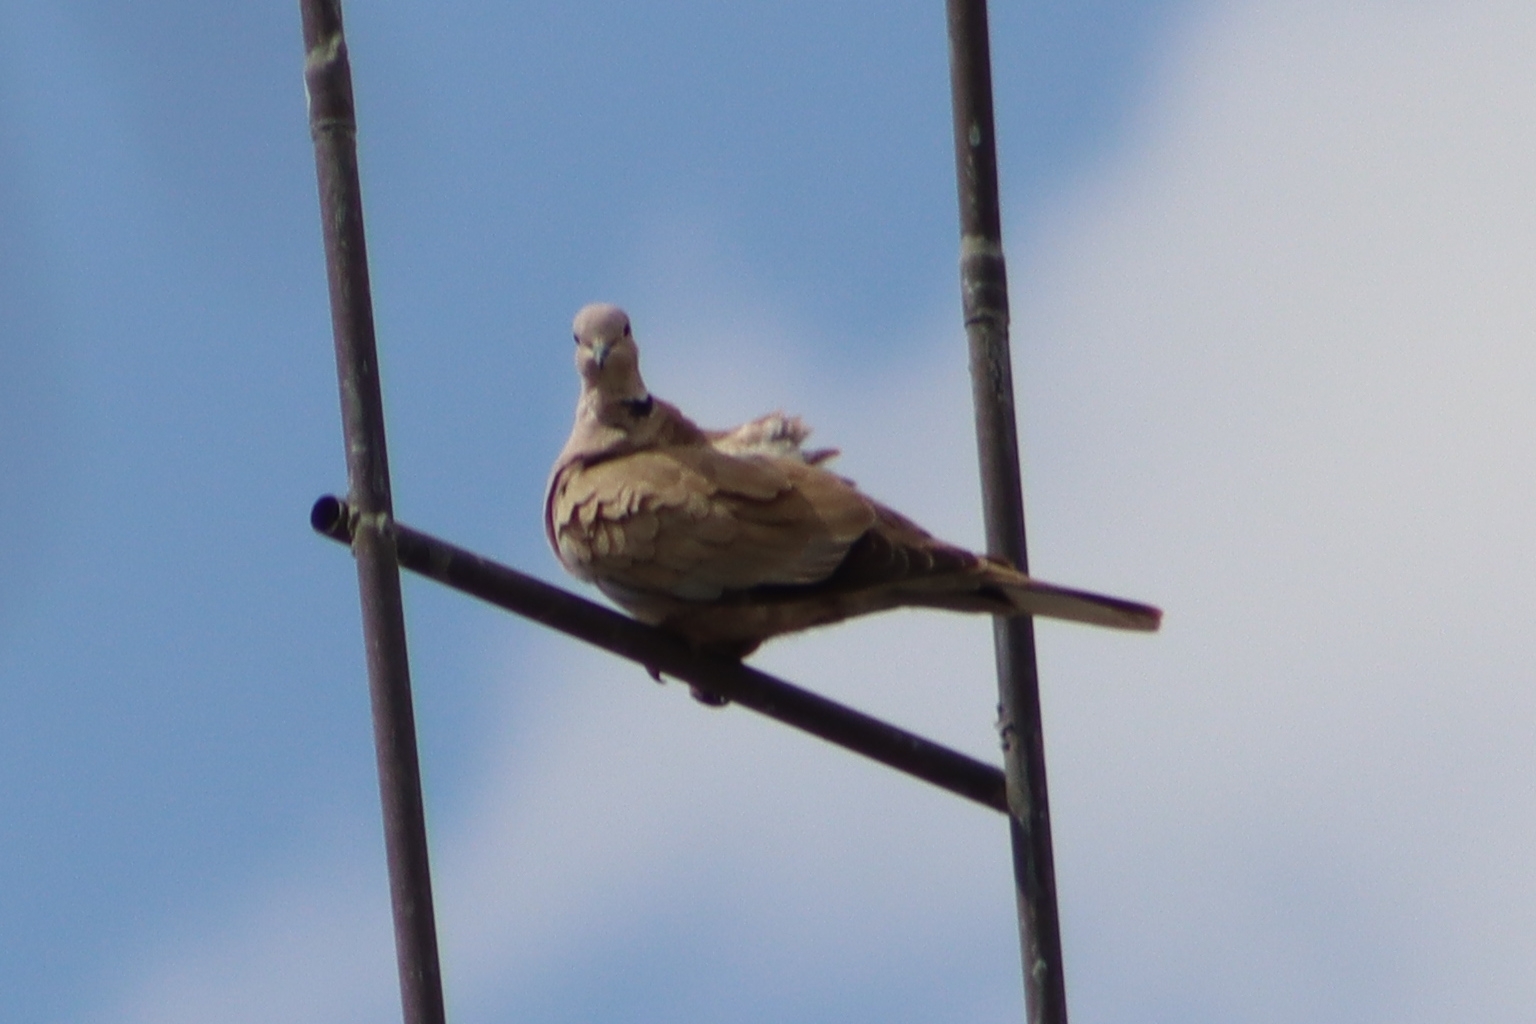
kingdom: Animalia
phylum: Chordata
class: Aves
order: Columbiformes
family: Columbidae
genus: Streptopelia
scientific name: Streptopelia decaocto
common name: Eurasian collared dove
